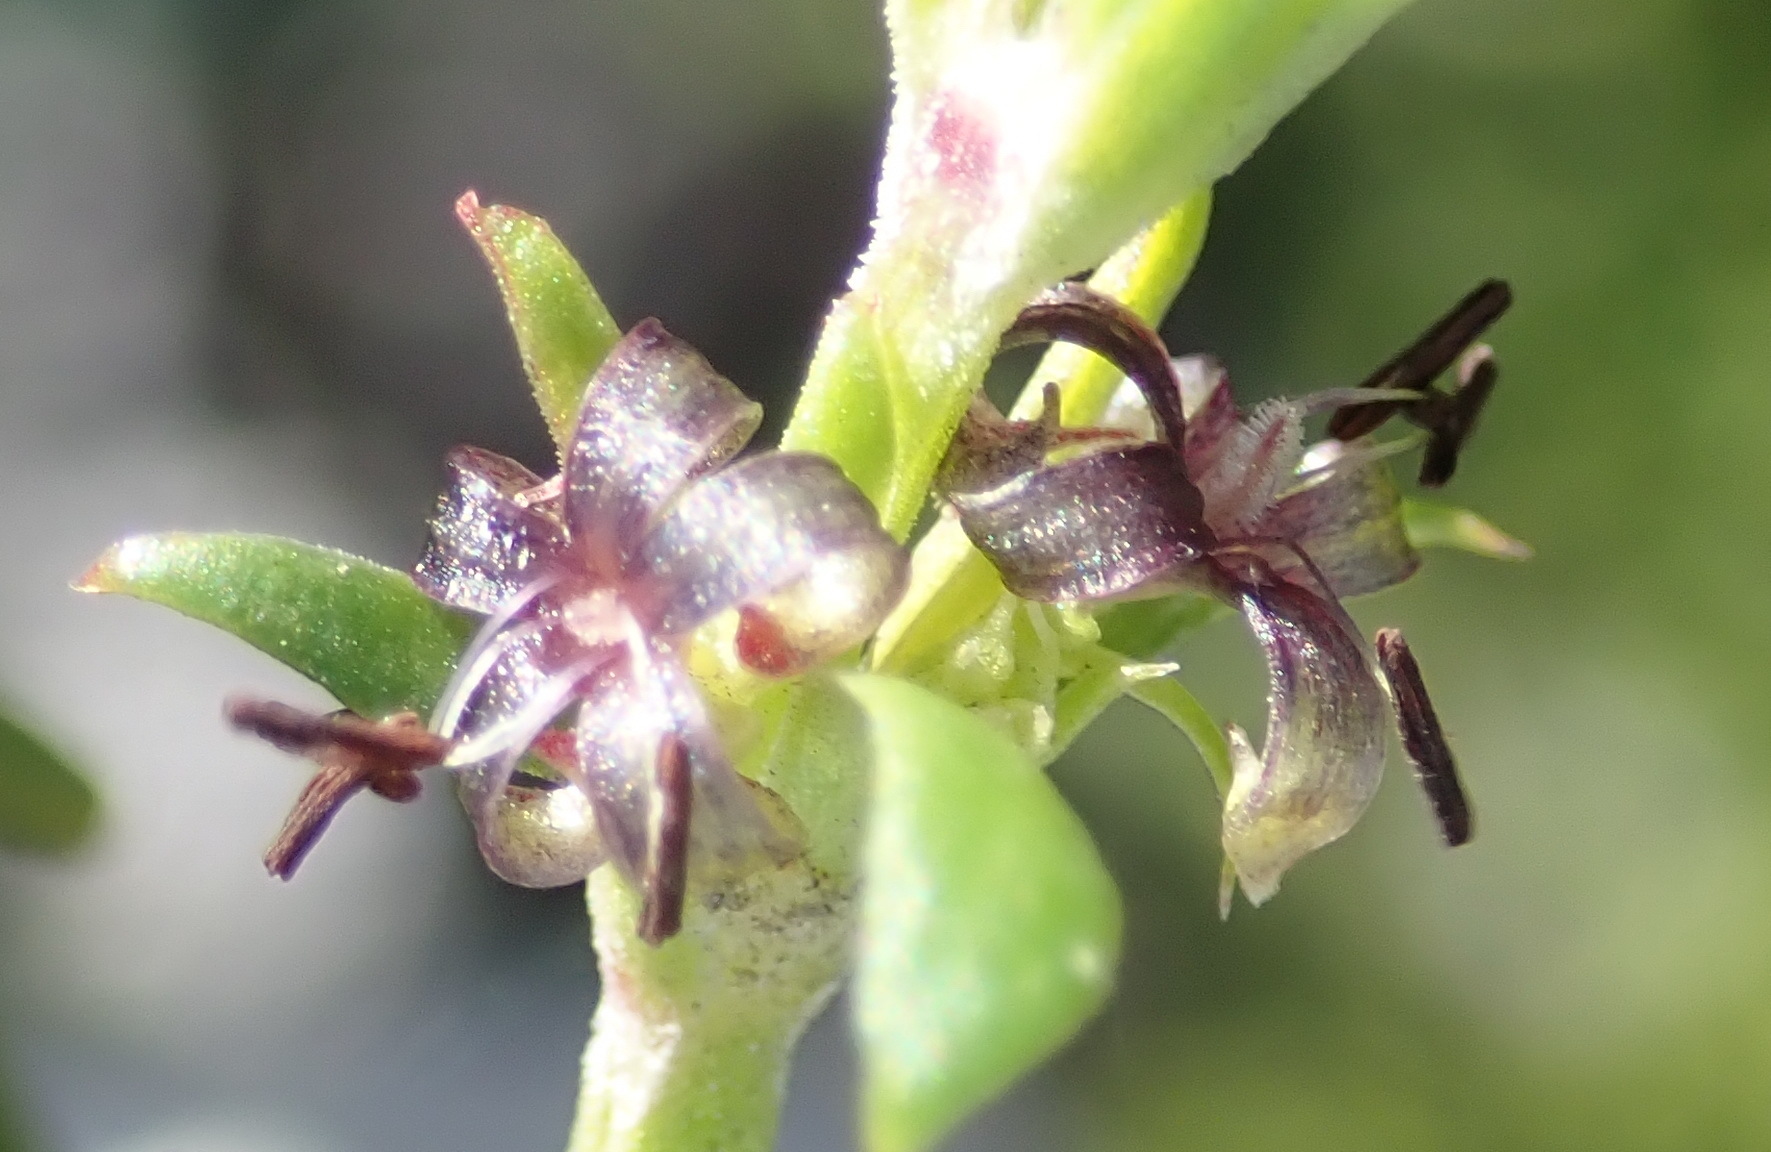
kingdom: Plantae
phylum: Tracheophyta
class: Magnoliopsida
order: Gentianales
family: Rubiaceae
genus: Carpacoce
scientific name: Carpacoce spermacocea
